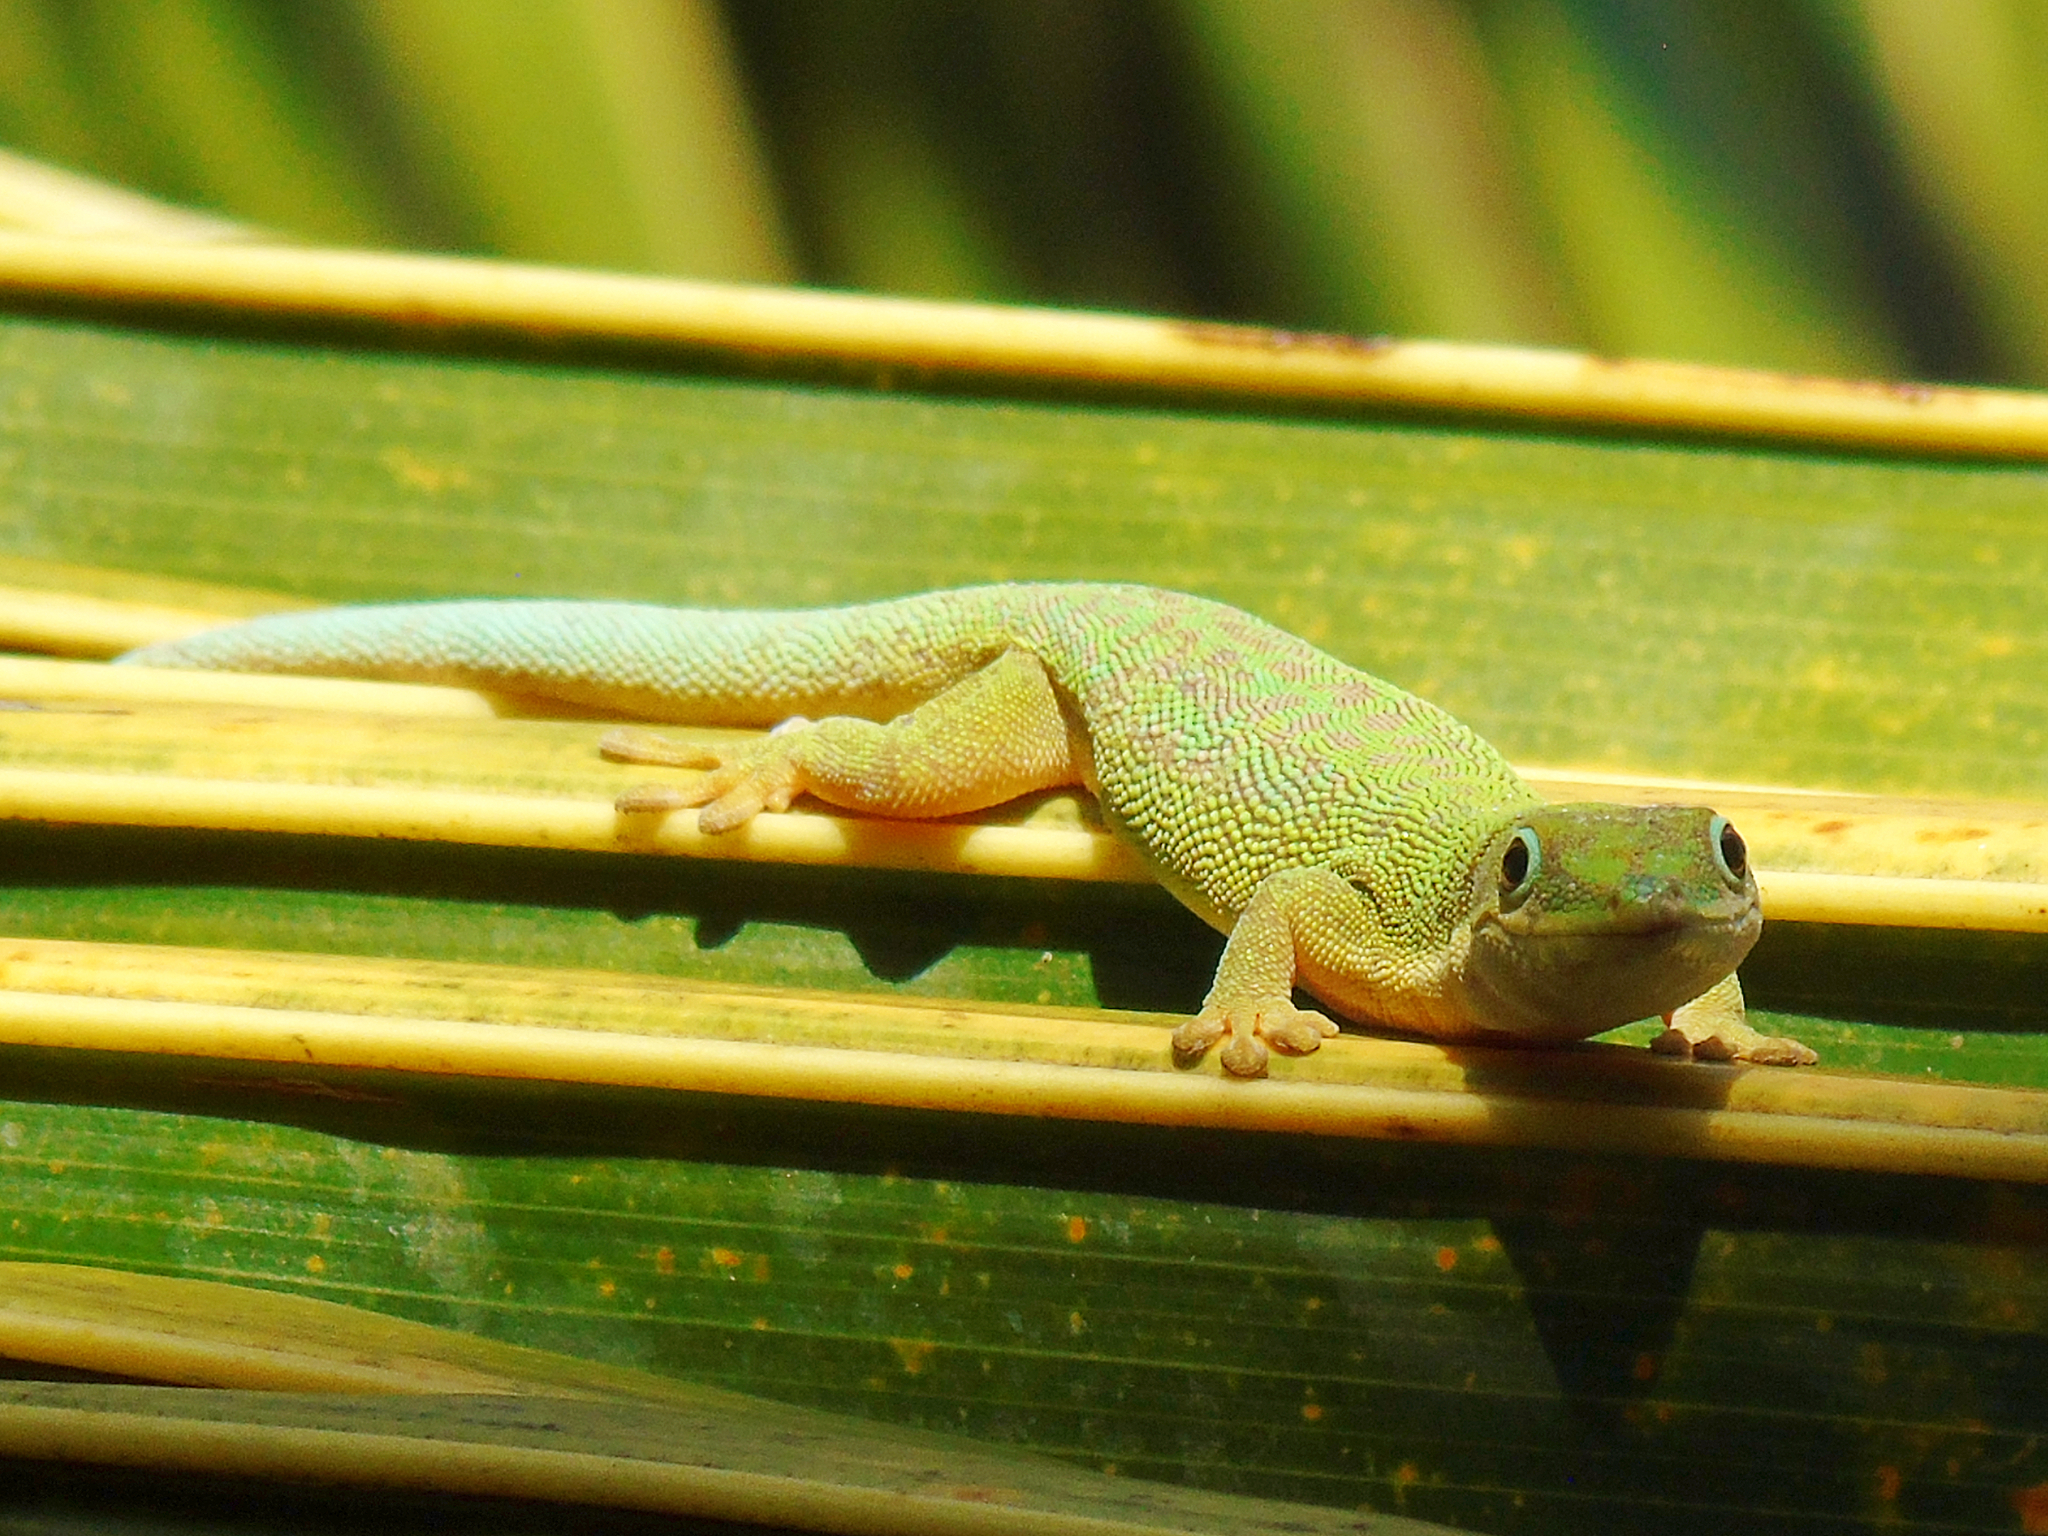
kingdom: Animalia
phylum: Chordata
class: Squamata
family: Gekkonidae
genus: Phelsuma
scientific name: Phelsuma dubia
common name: Zanzibar day gecko
